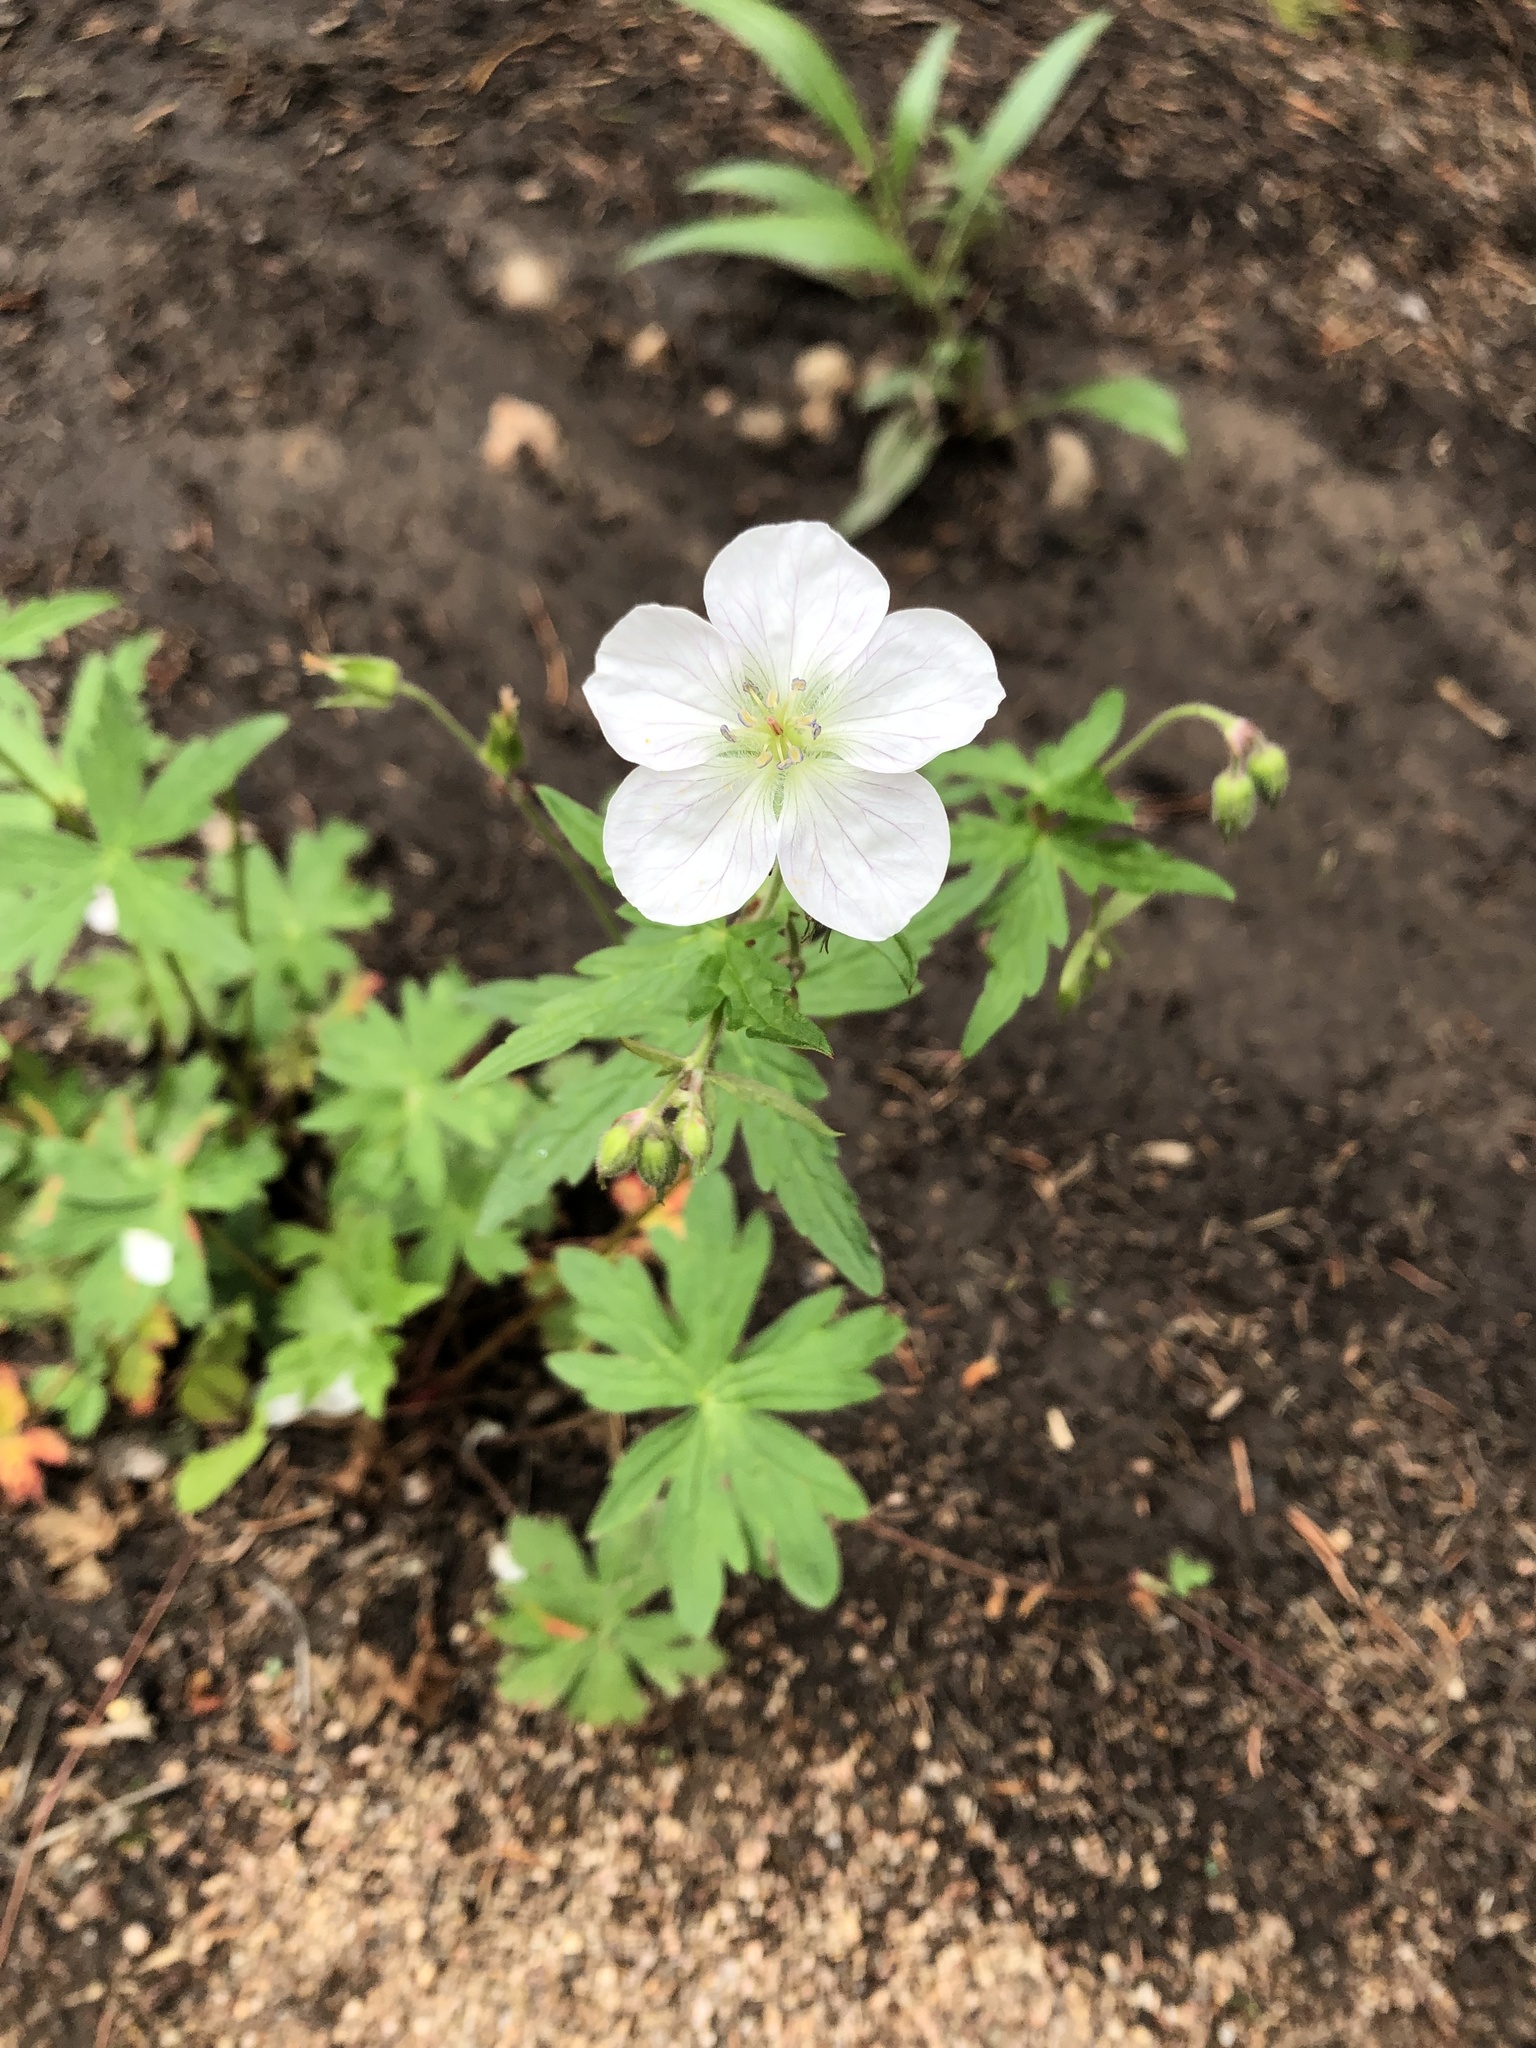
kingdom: Plantae
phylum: Tracheophyta
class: Magnoliopsida
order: Geraniales
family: Geraniaceae
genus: Geranium
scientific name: Geranium richardsonii
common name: Richardson's crane's-bill
